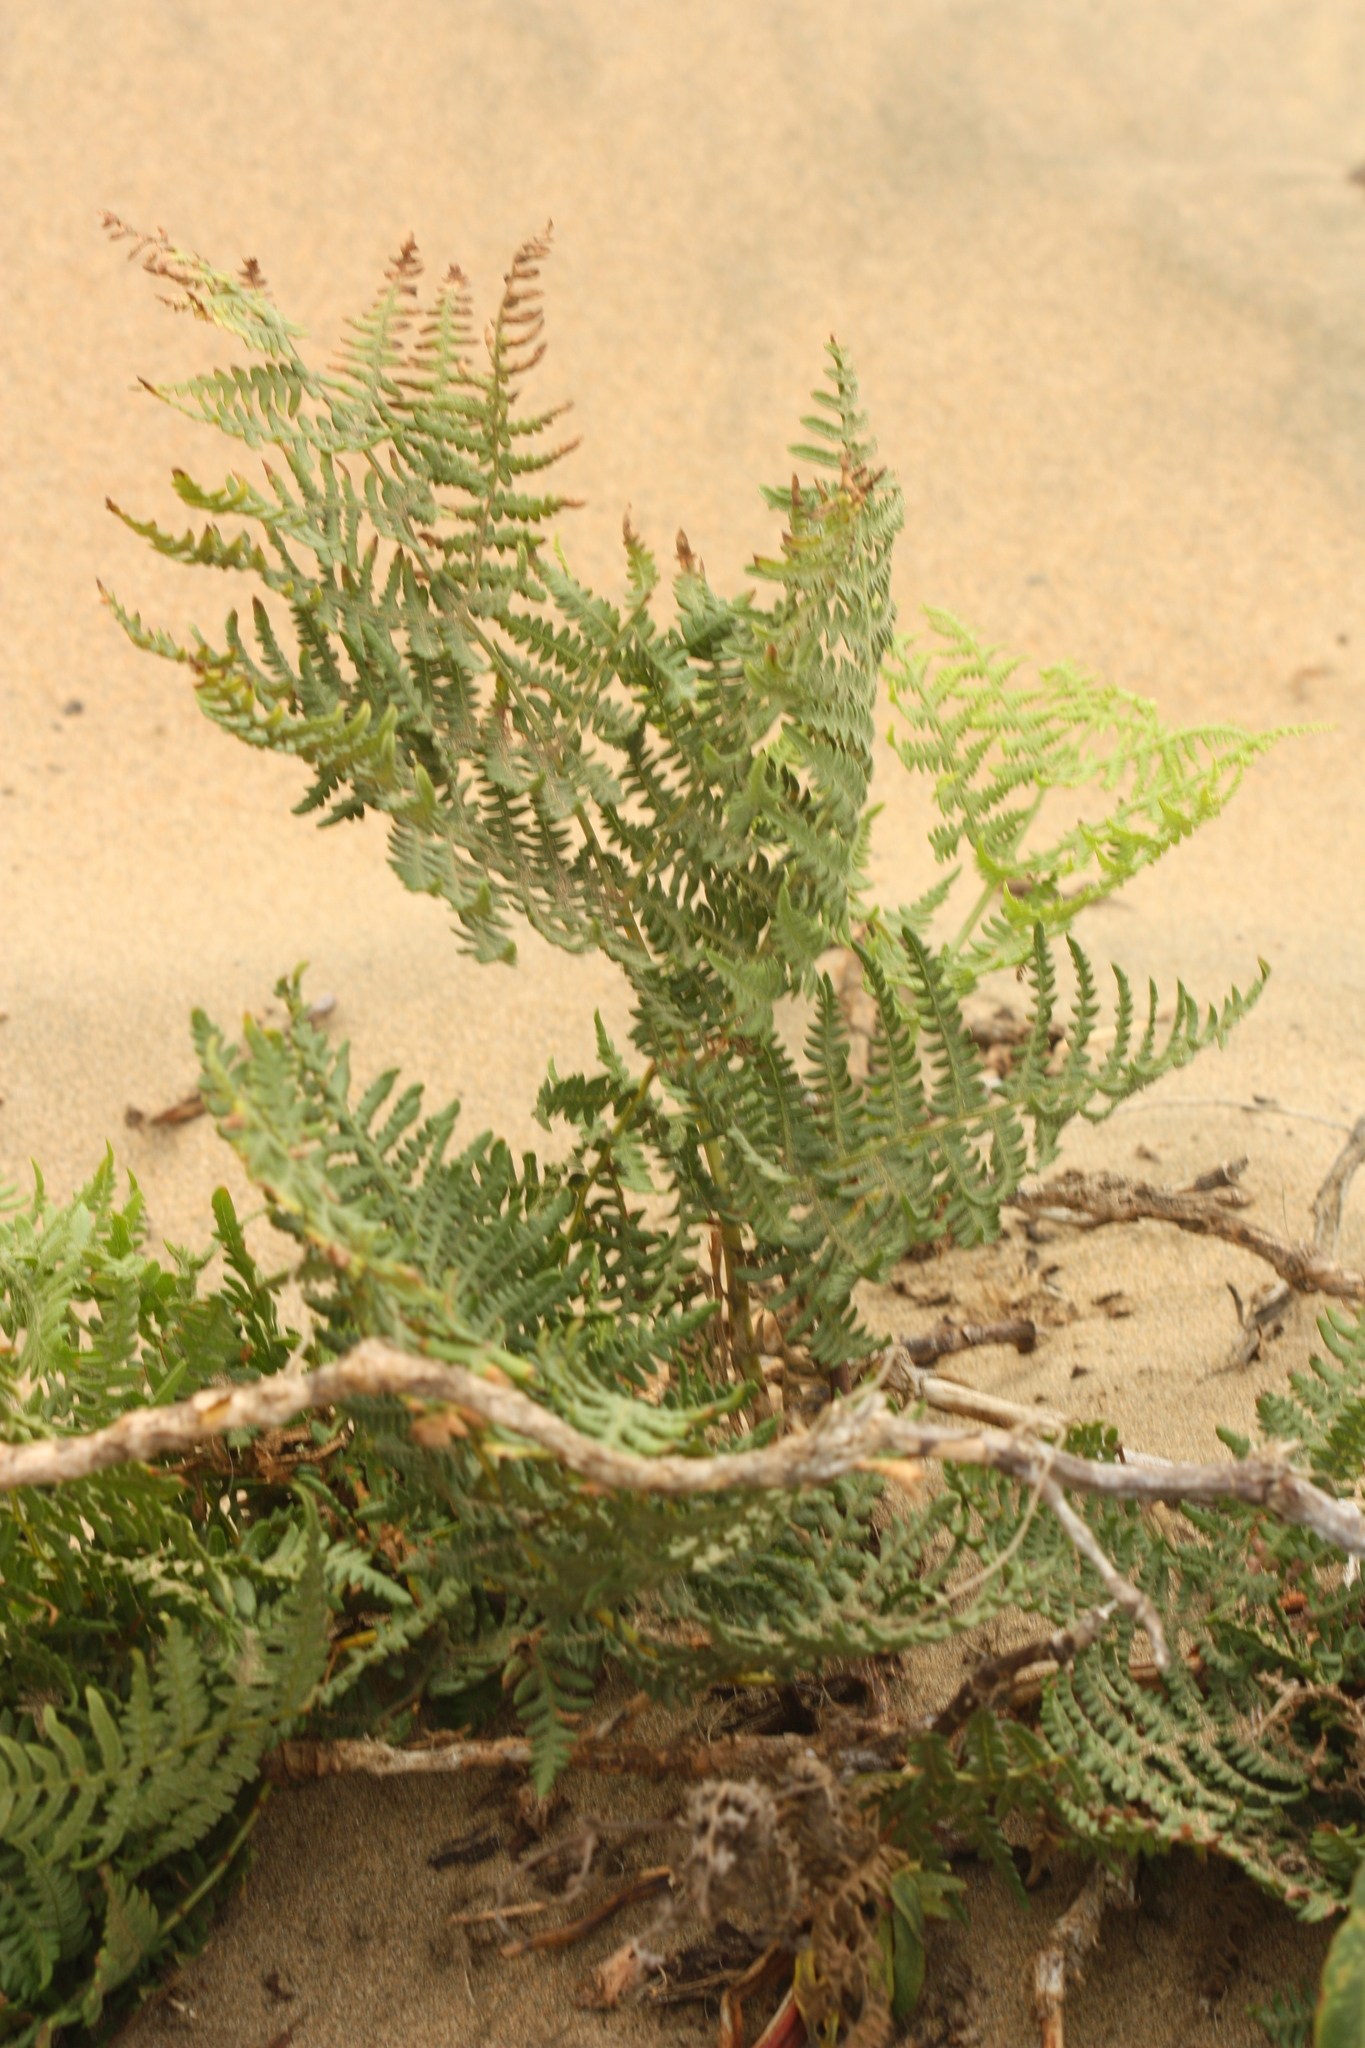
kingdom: Plantae
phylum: Tracheophyta
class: Polypodiopsida
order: Polypodiales
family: Dennstaedtiaceae
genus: Pteridium
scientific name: Pteridium aquilinum
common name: Bracken
